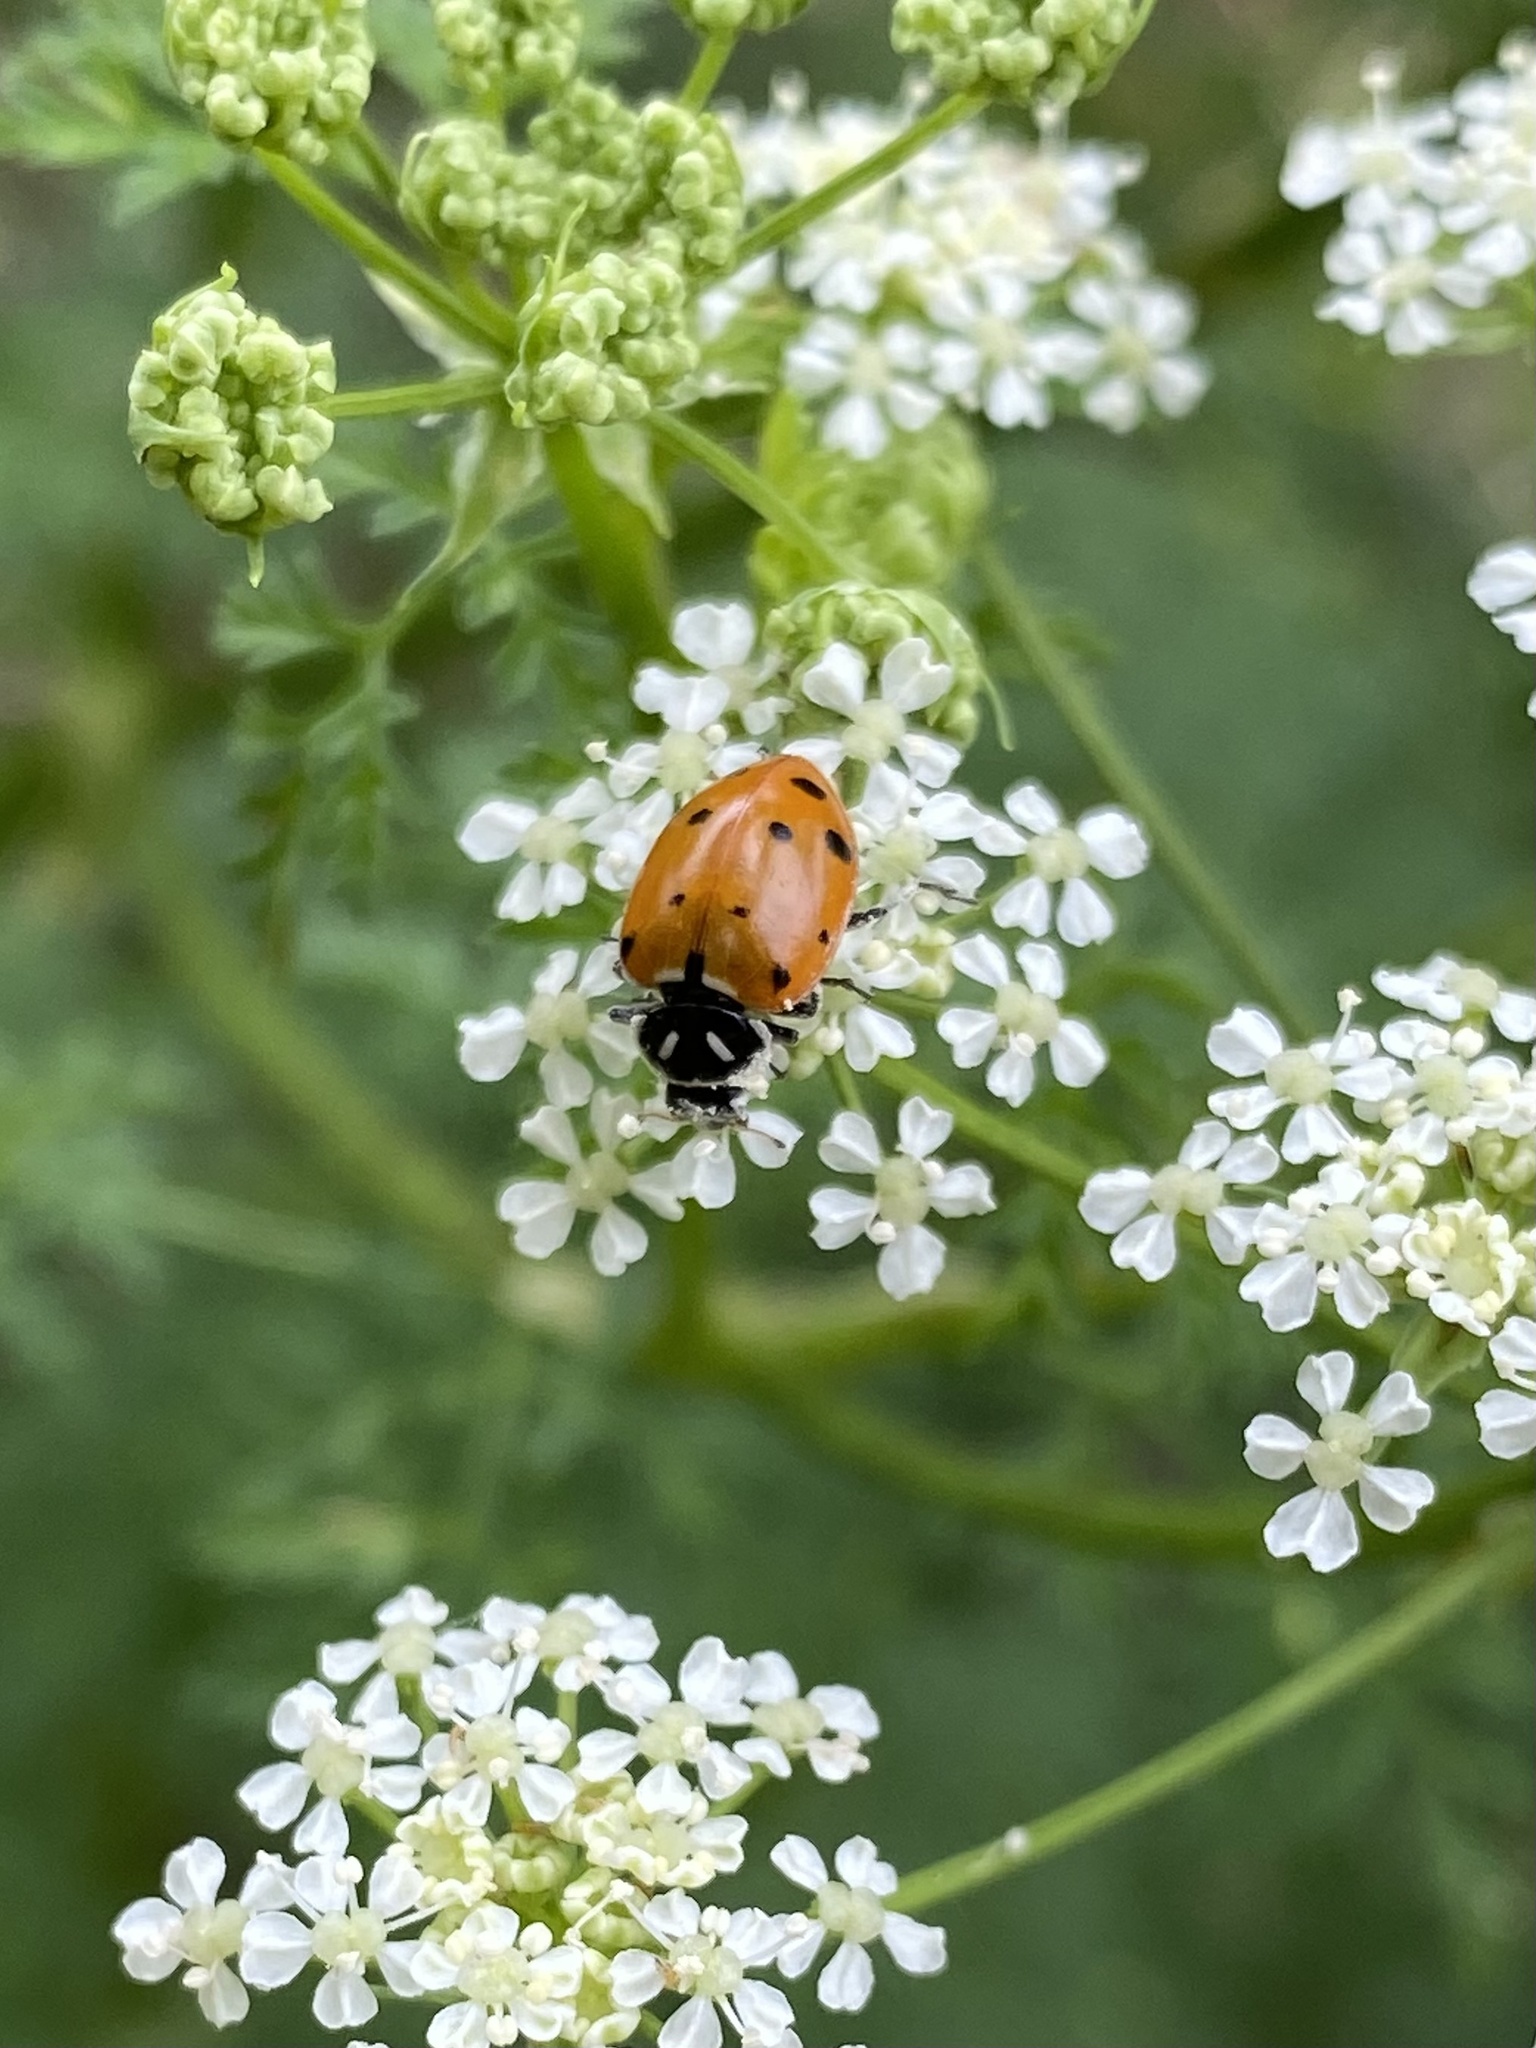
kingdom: Animalia
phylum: Arthropoda
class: Insecta
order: Coleoptera
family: Coccinellidae
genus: Hippodamia
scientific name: Hippodamia convergens
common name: Convergent lady beetle
